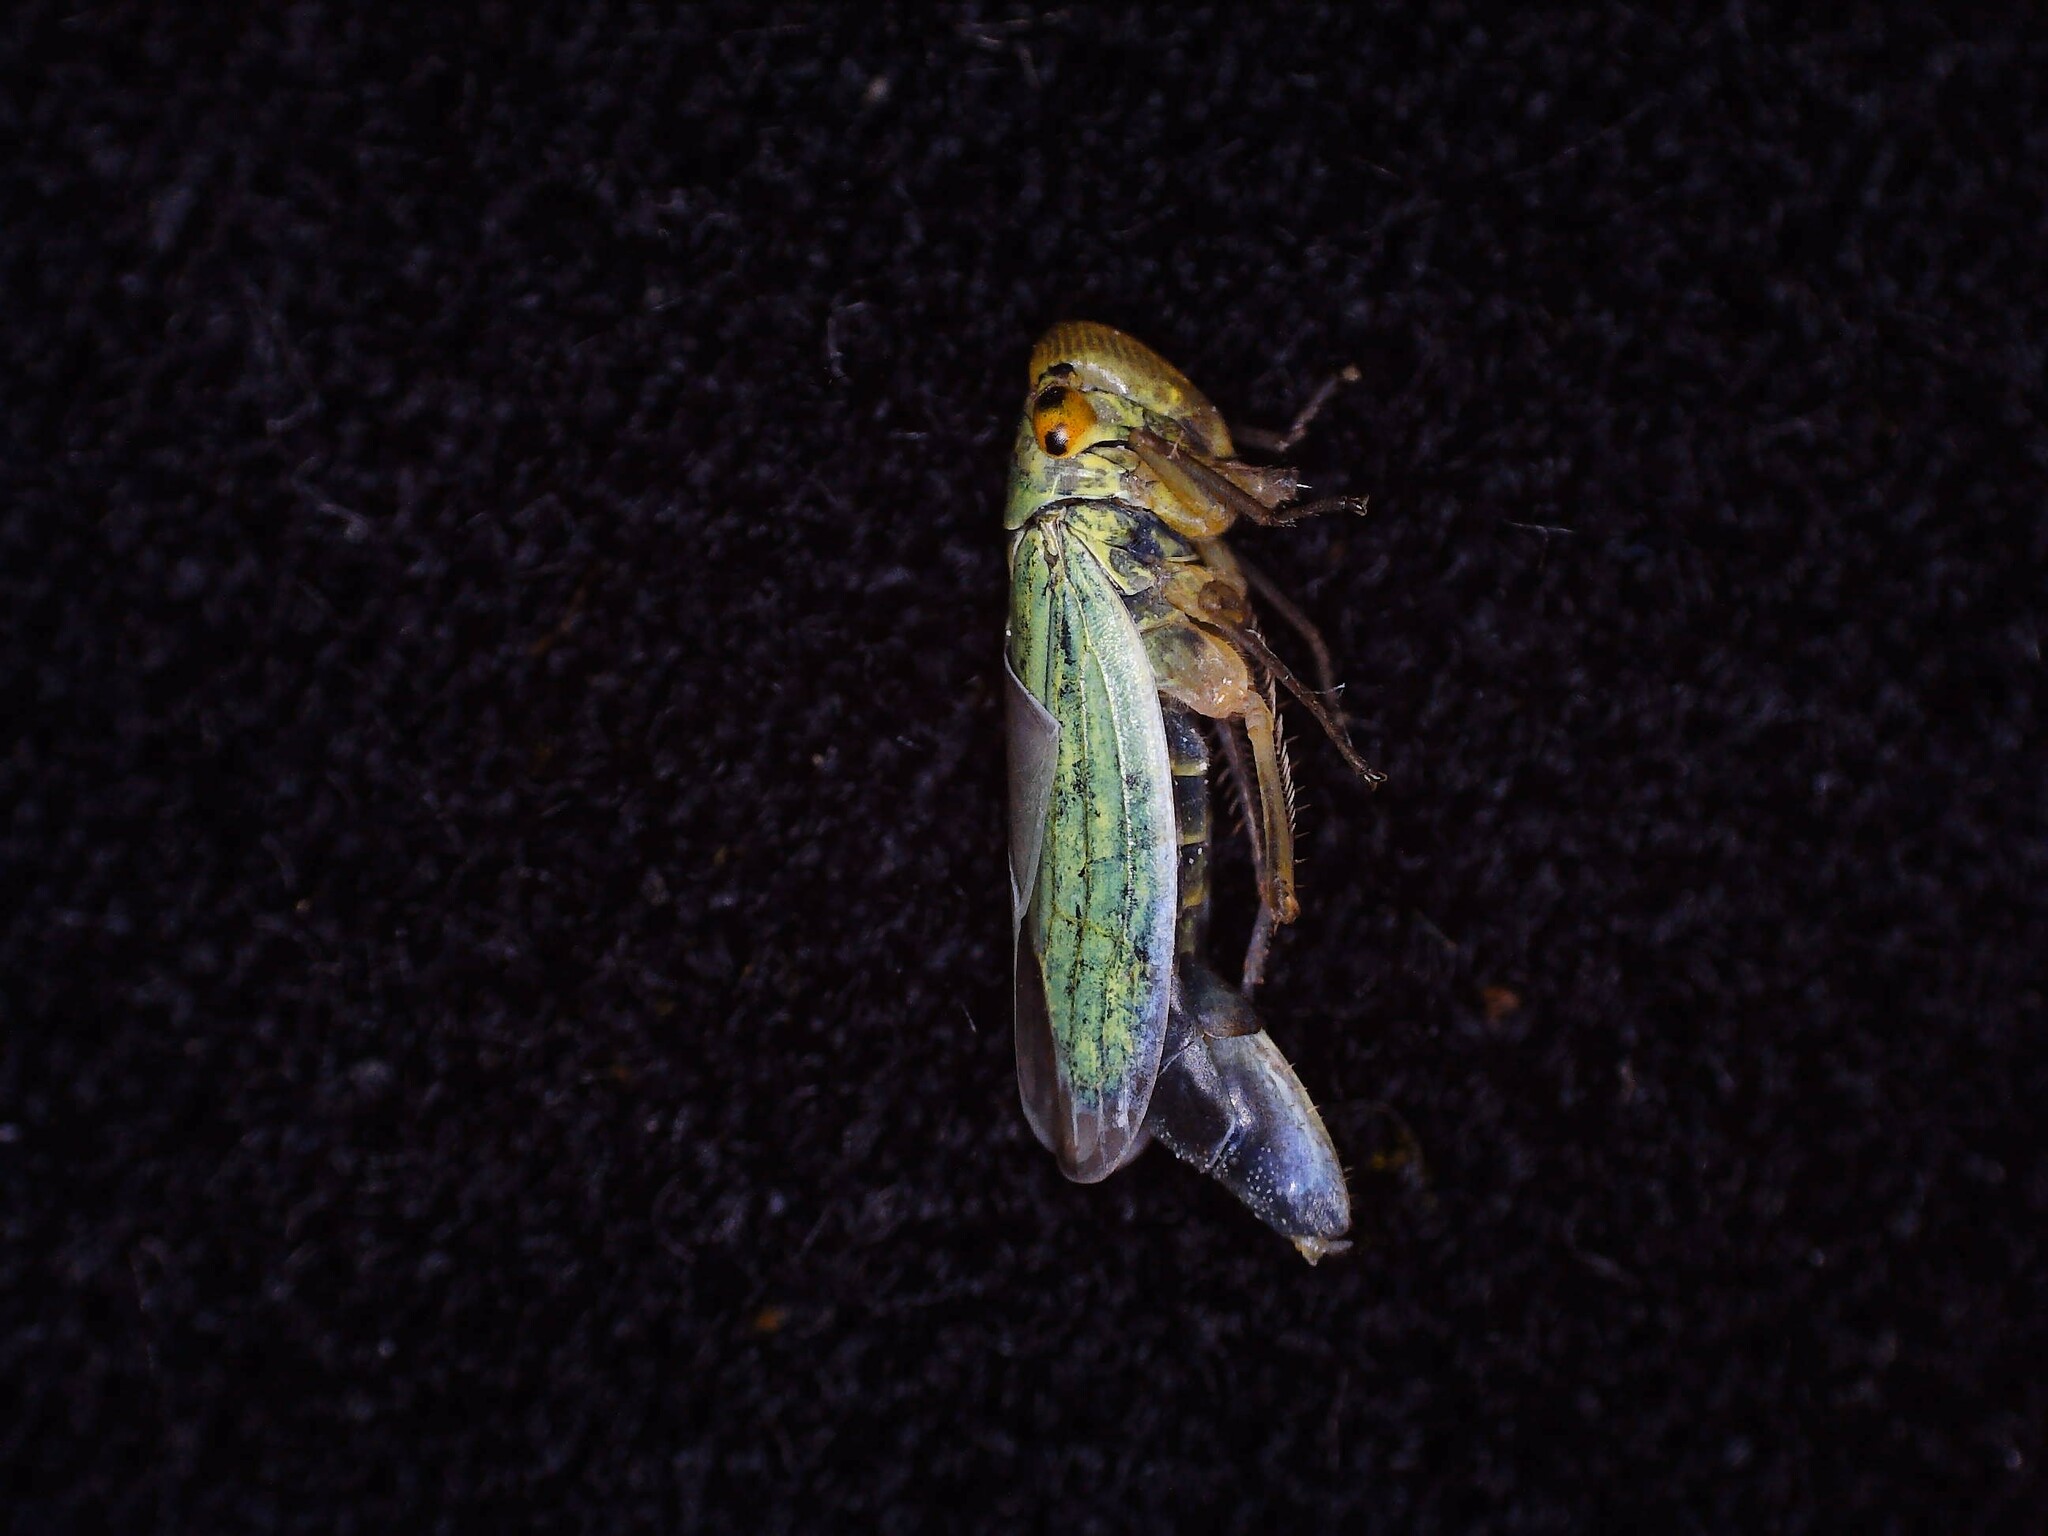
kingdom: Animalia
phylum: Arthropoda
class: Insecta
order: Hemiptera
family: Cicadellidae
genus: Cicadella
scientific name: Cicadella viridis
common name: Leafhopper
